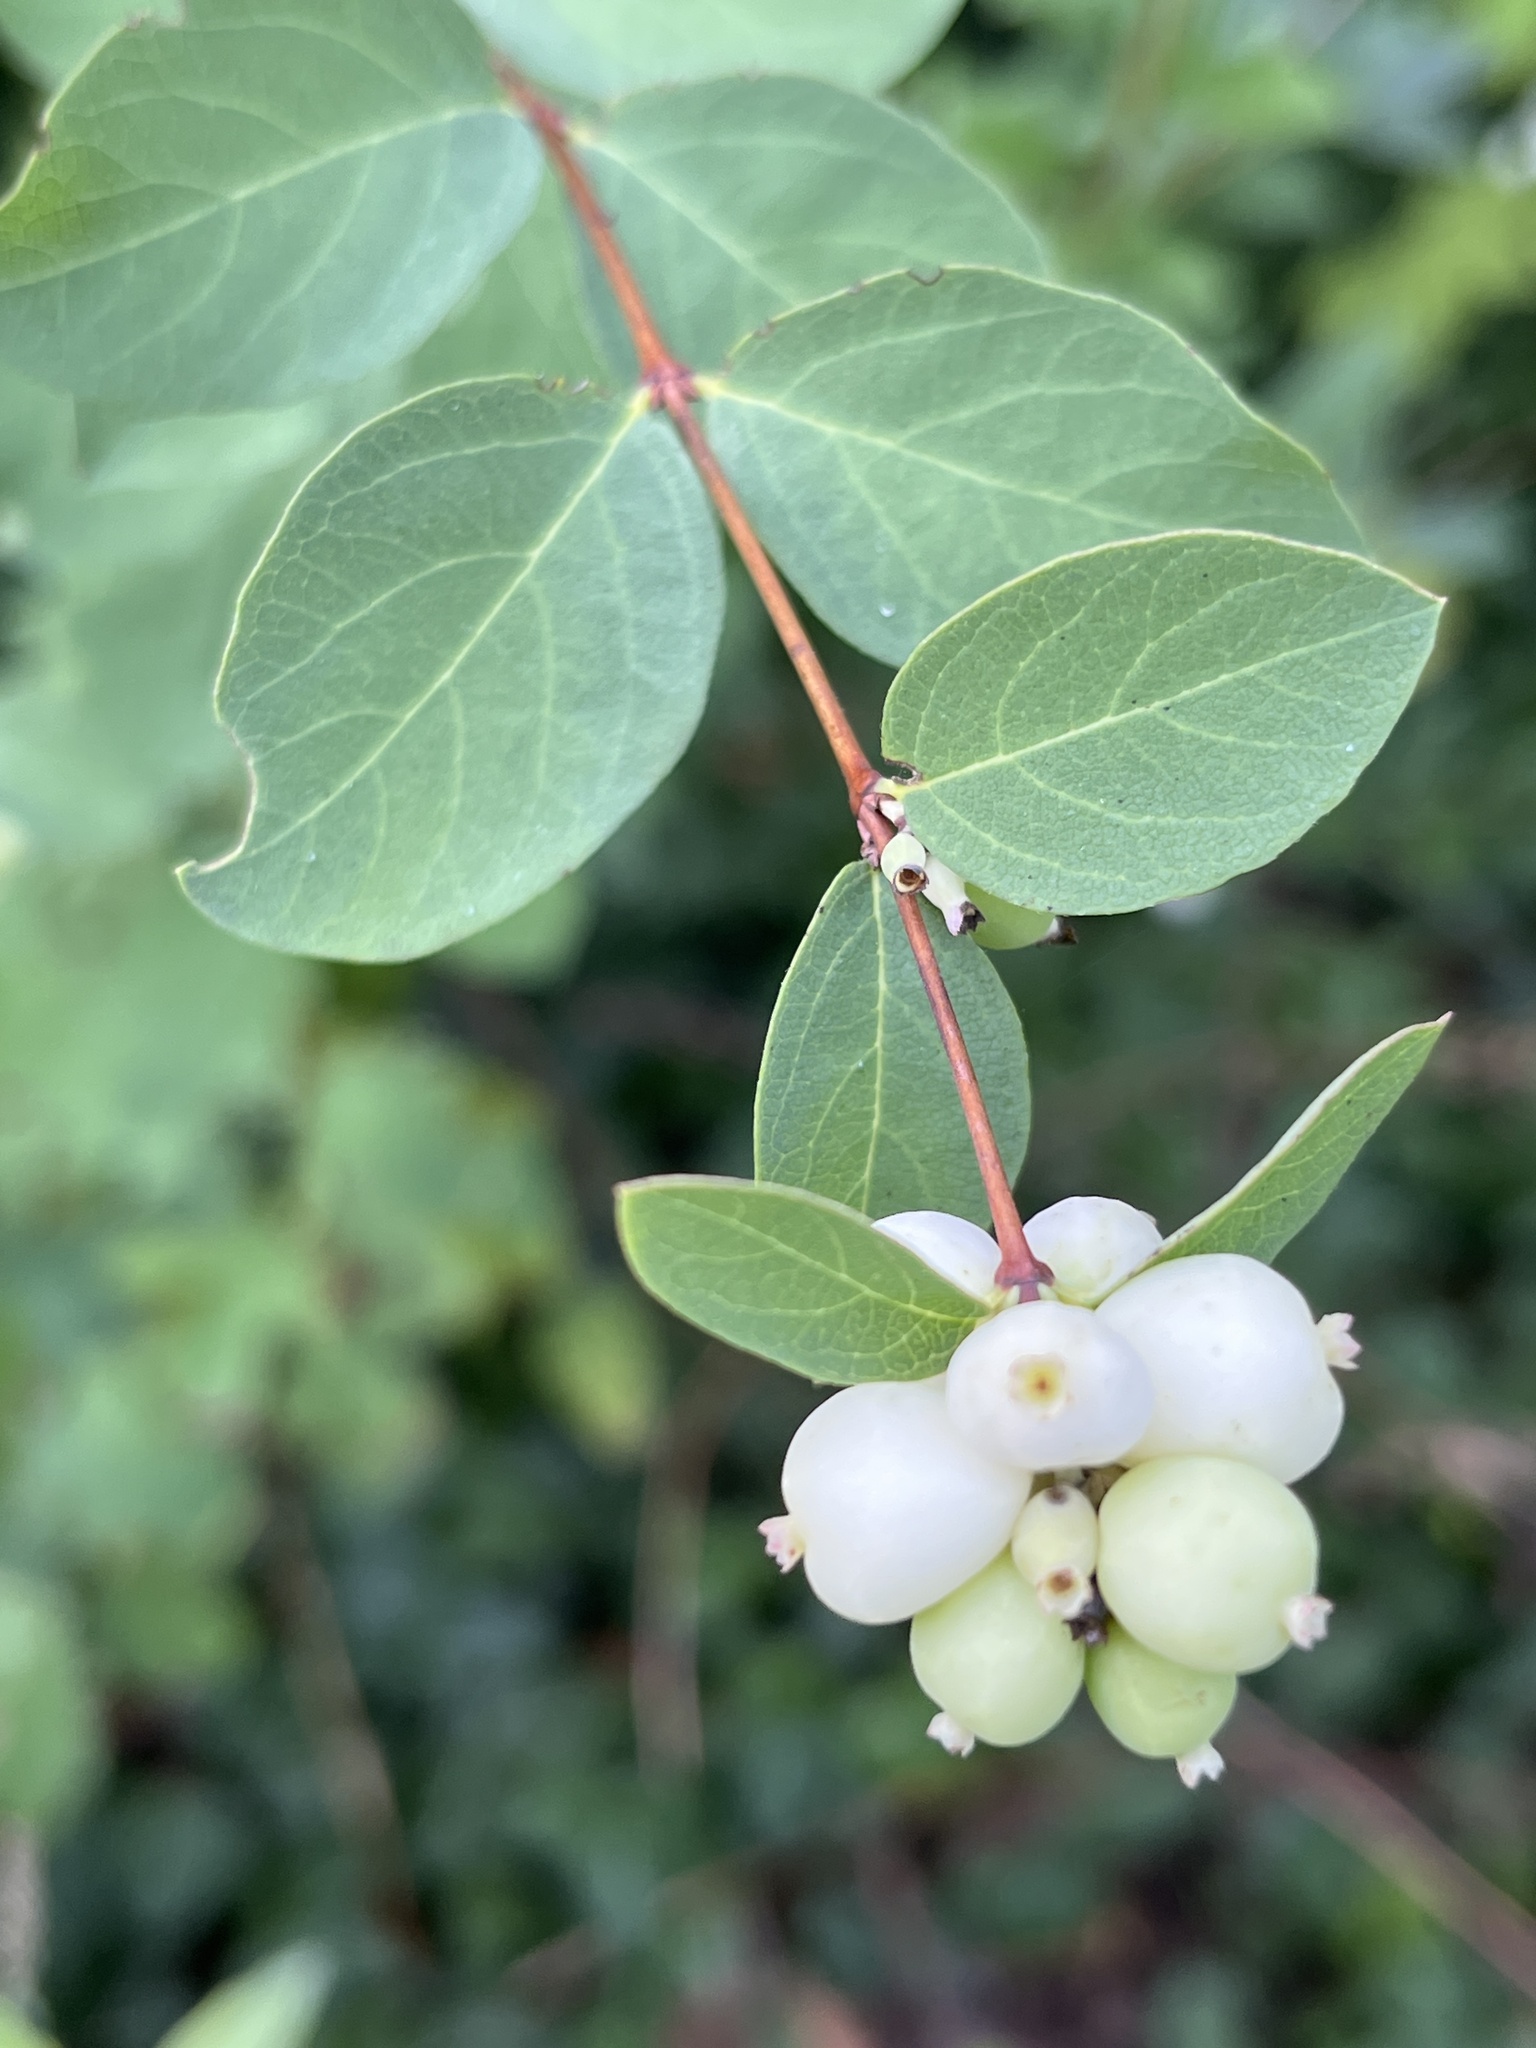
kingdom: Plantae
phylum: Tracheophyta
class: Magnoliopsida
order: Dipsacales
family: Caprifoliaceae
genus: Symphoricarpos
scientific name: Symphoricarpos albus
